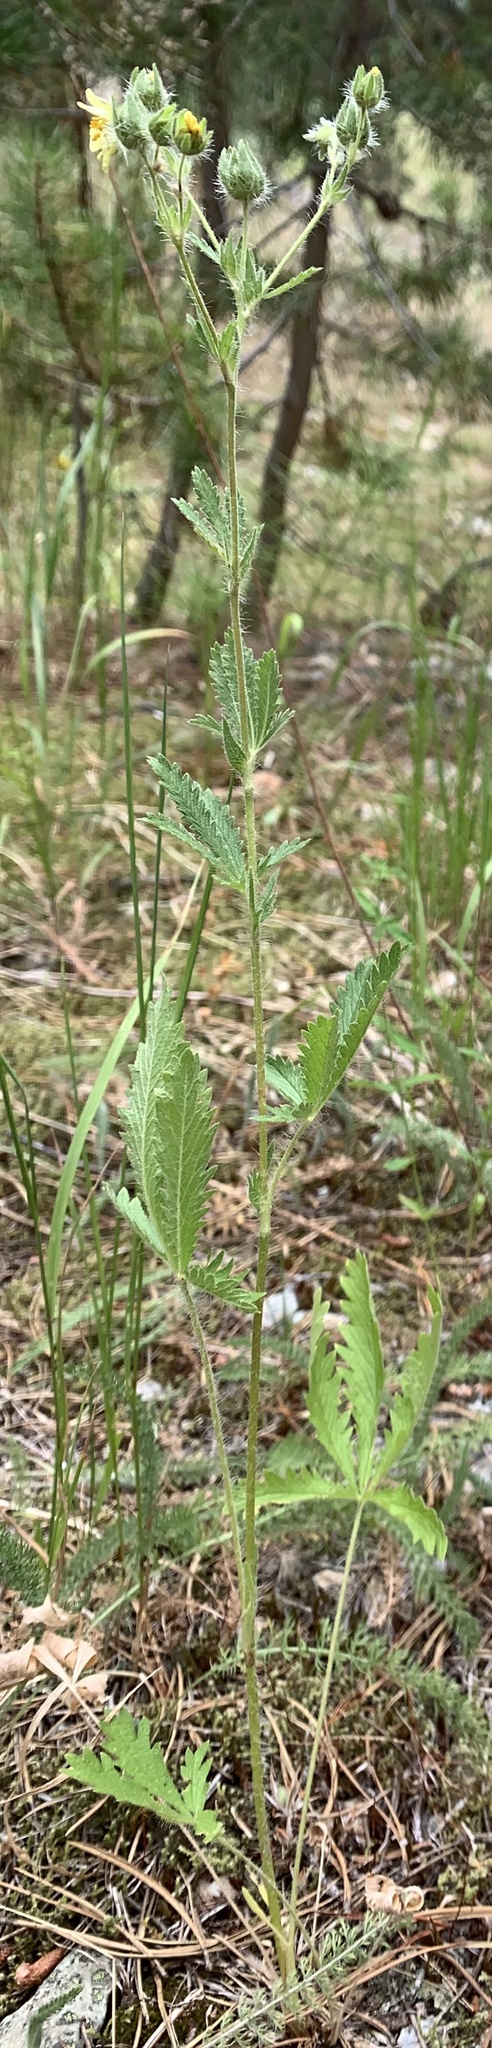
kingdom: Plantae
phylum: Tracheophyta
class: Magnoliopsida
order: Rosales
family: Rosaceae
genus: Potentilla
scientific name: Potentilla recta
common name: Sulphur cinquefoil
